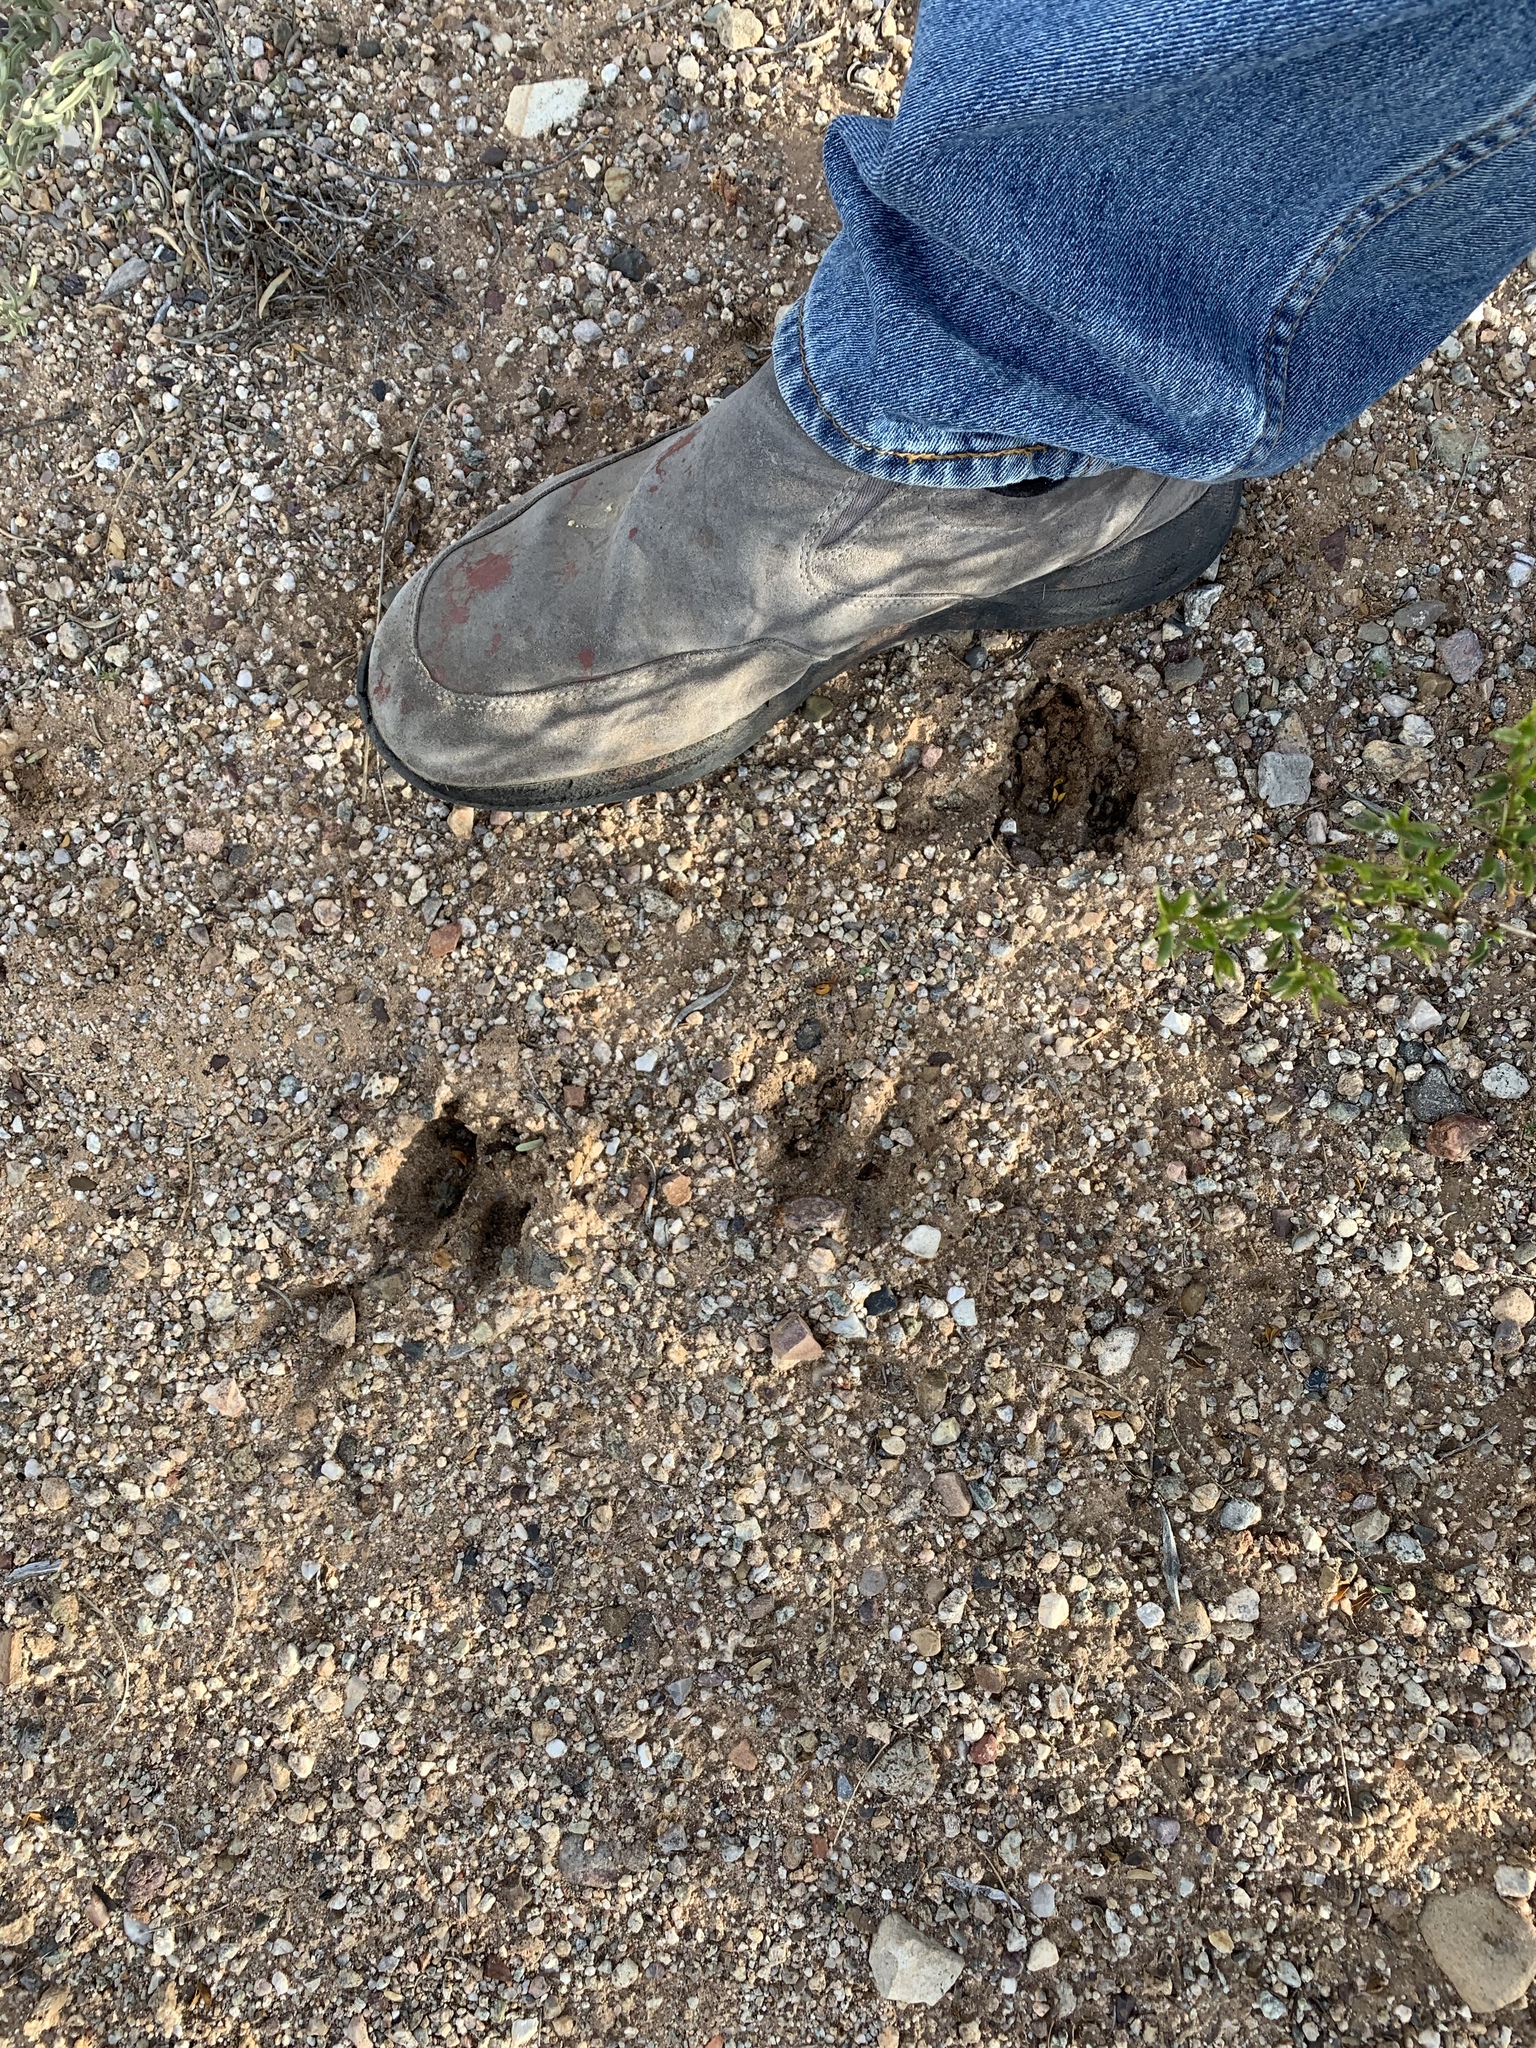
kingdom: Animalia
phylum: Chordata
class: Mammalia
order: Artiodactyla
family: Tayassuidae
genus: Pecari
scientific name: Pecari tajacu
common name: Collared peccary
